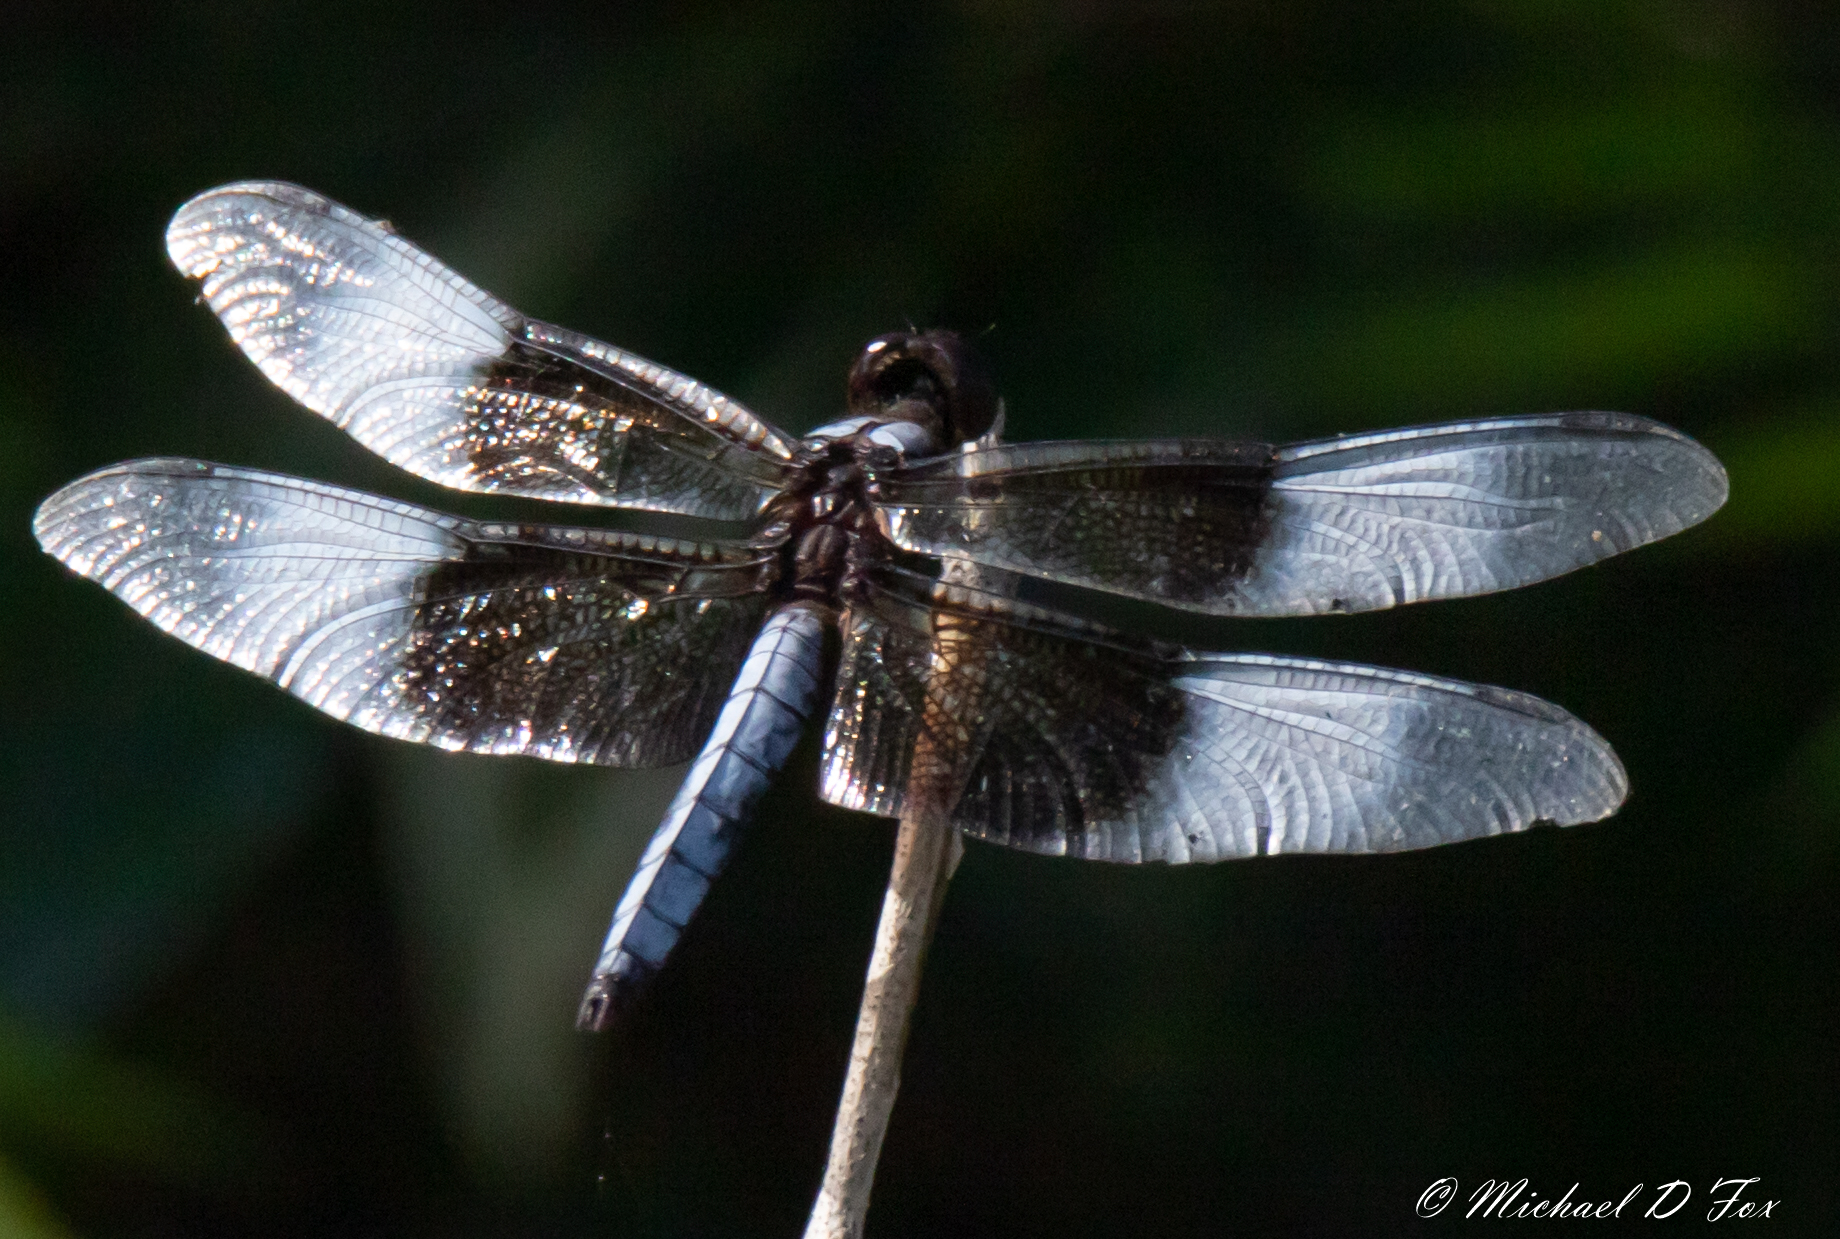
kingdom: Animalia
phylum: Arthropoda
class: Insecta
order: Odonata
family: Libellulidae
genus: Libellula
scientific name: Libellula luctuosa
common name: Widow skimmer
